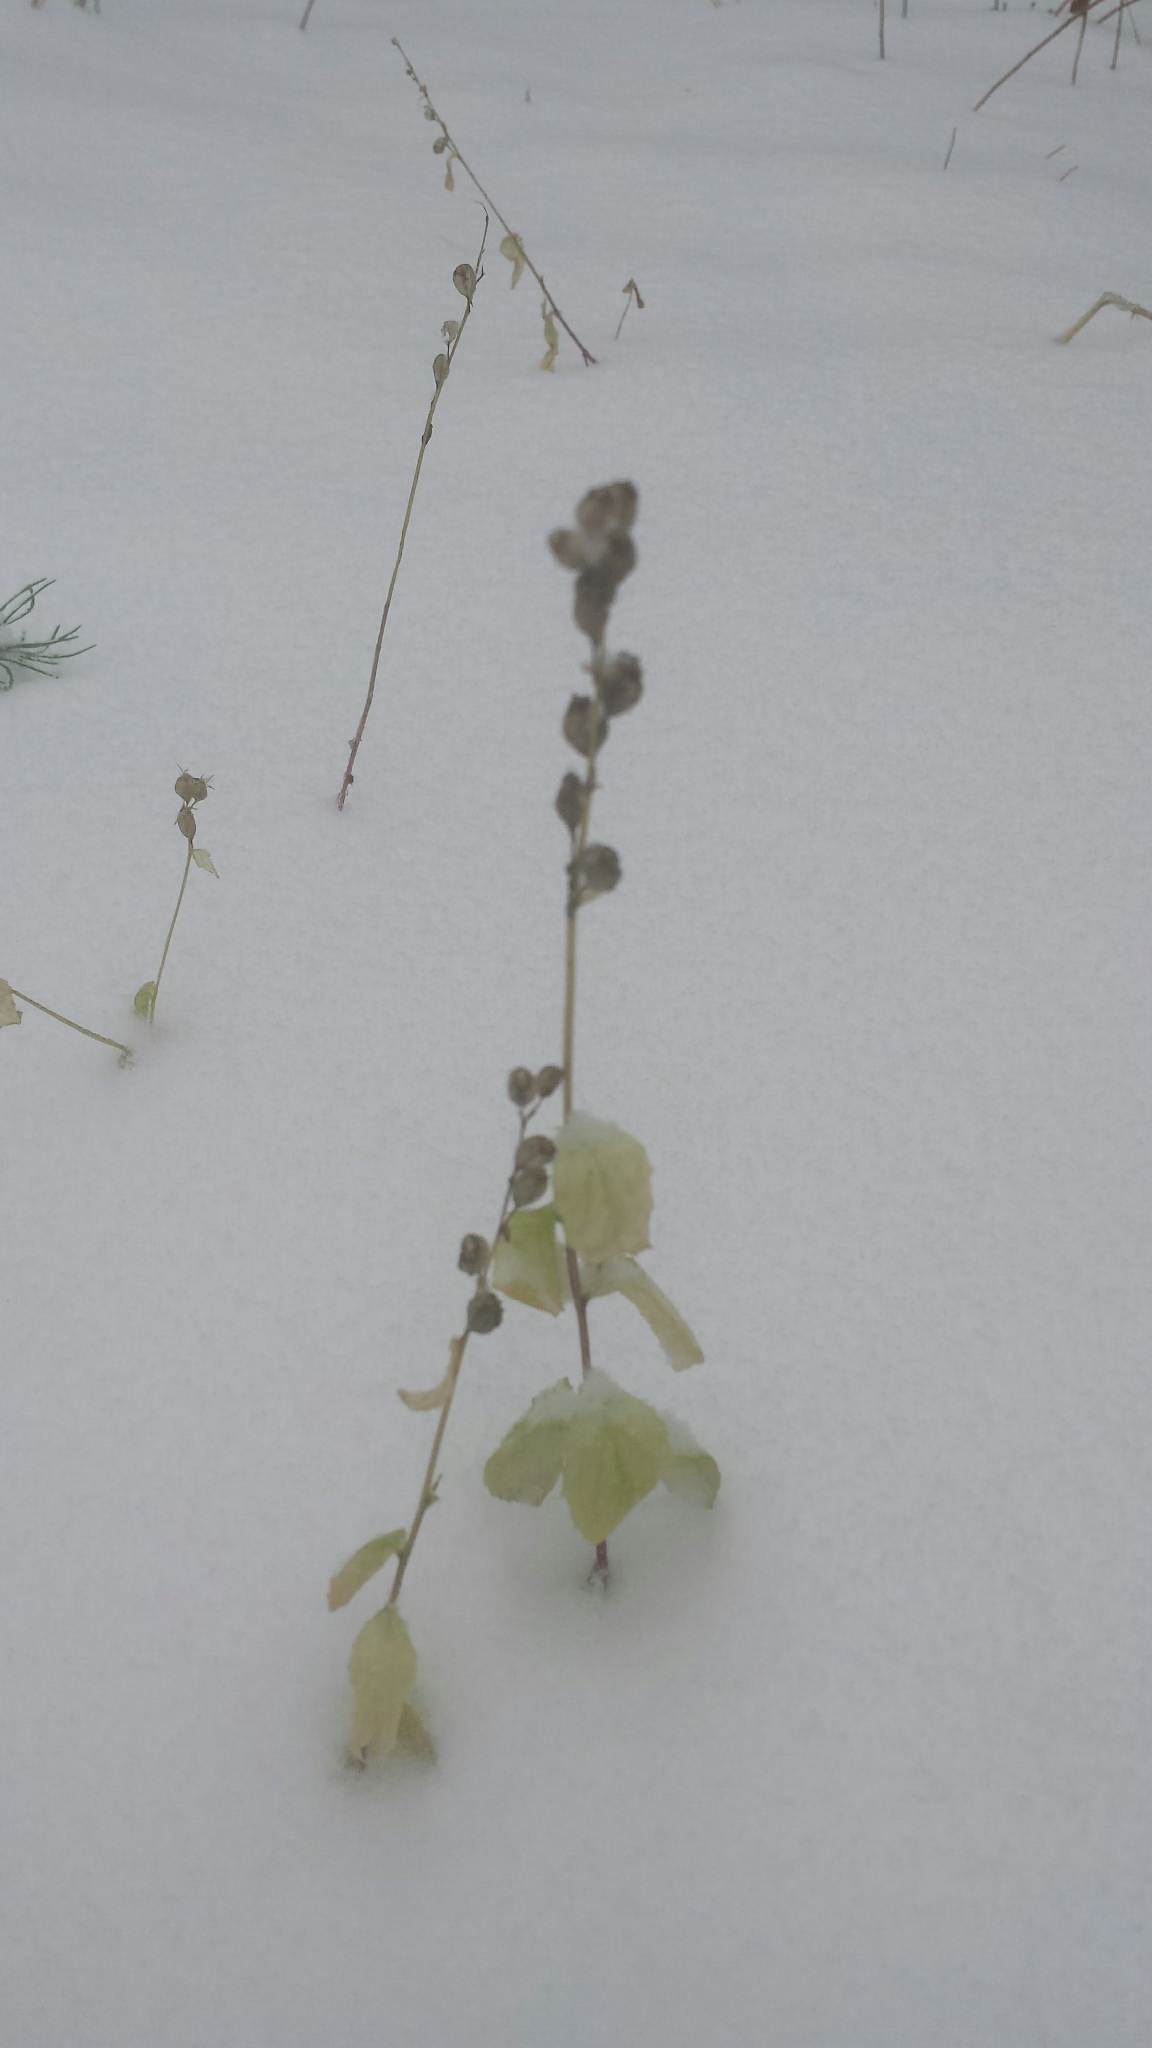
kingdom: Plantae
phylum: Tracheophyta
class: Magnoliopsida
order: Asterales
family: Campanulaceae
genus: Lobelia
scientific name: Lobelia inflata
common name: Indian tobacco
